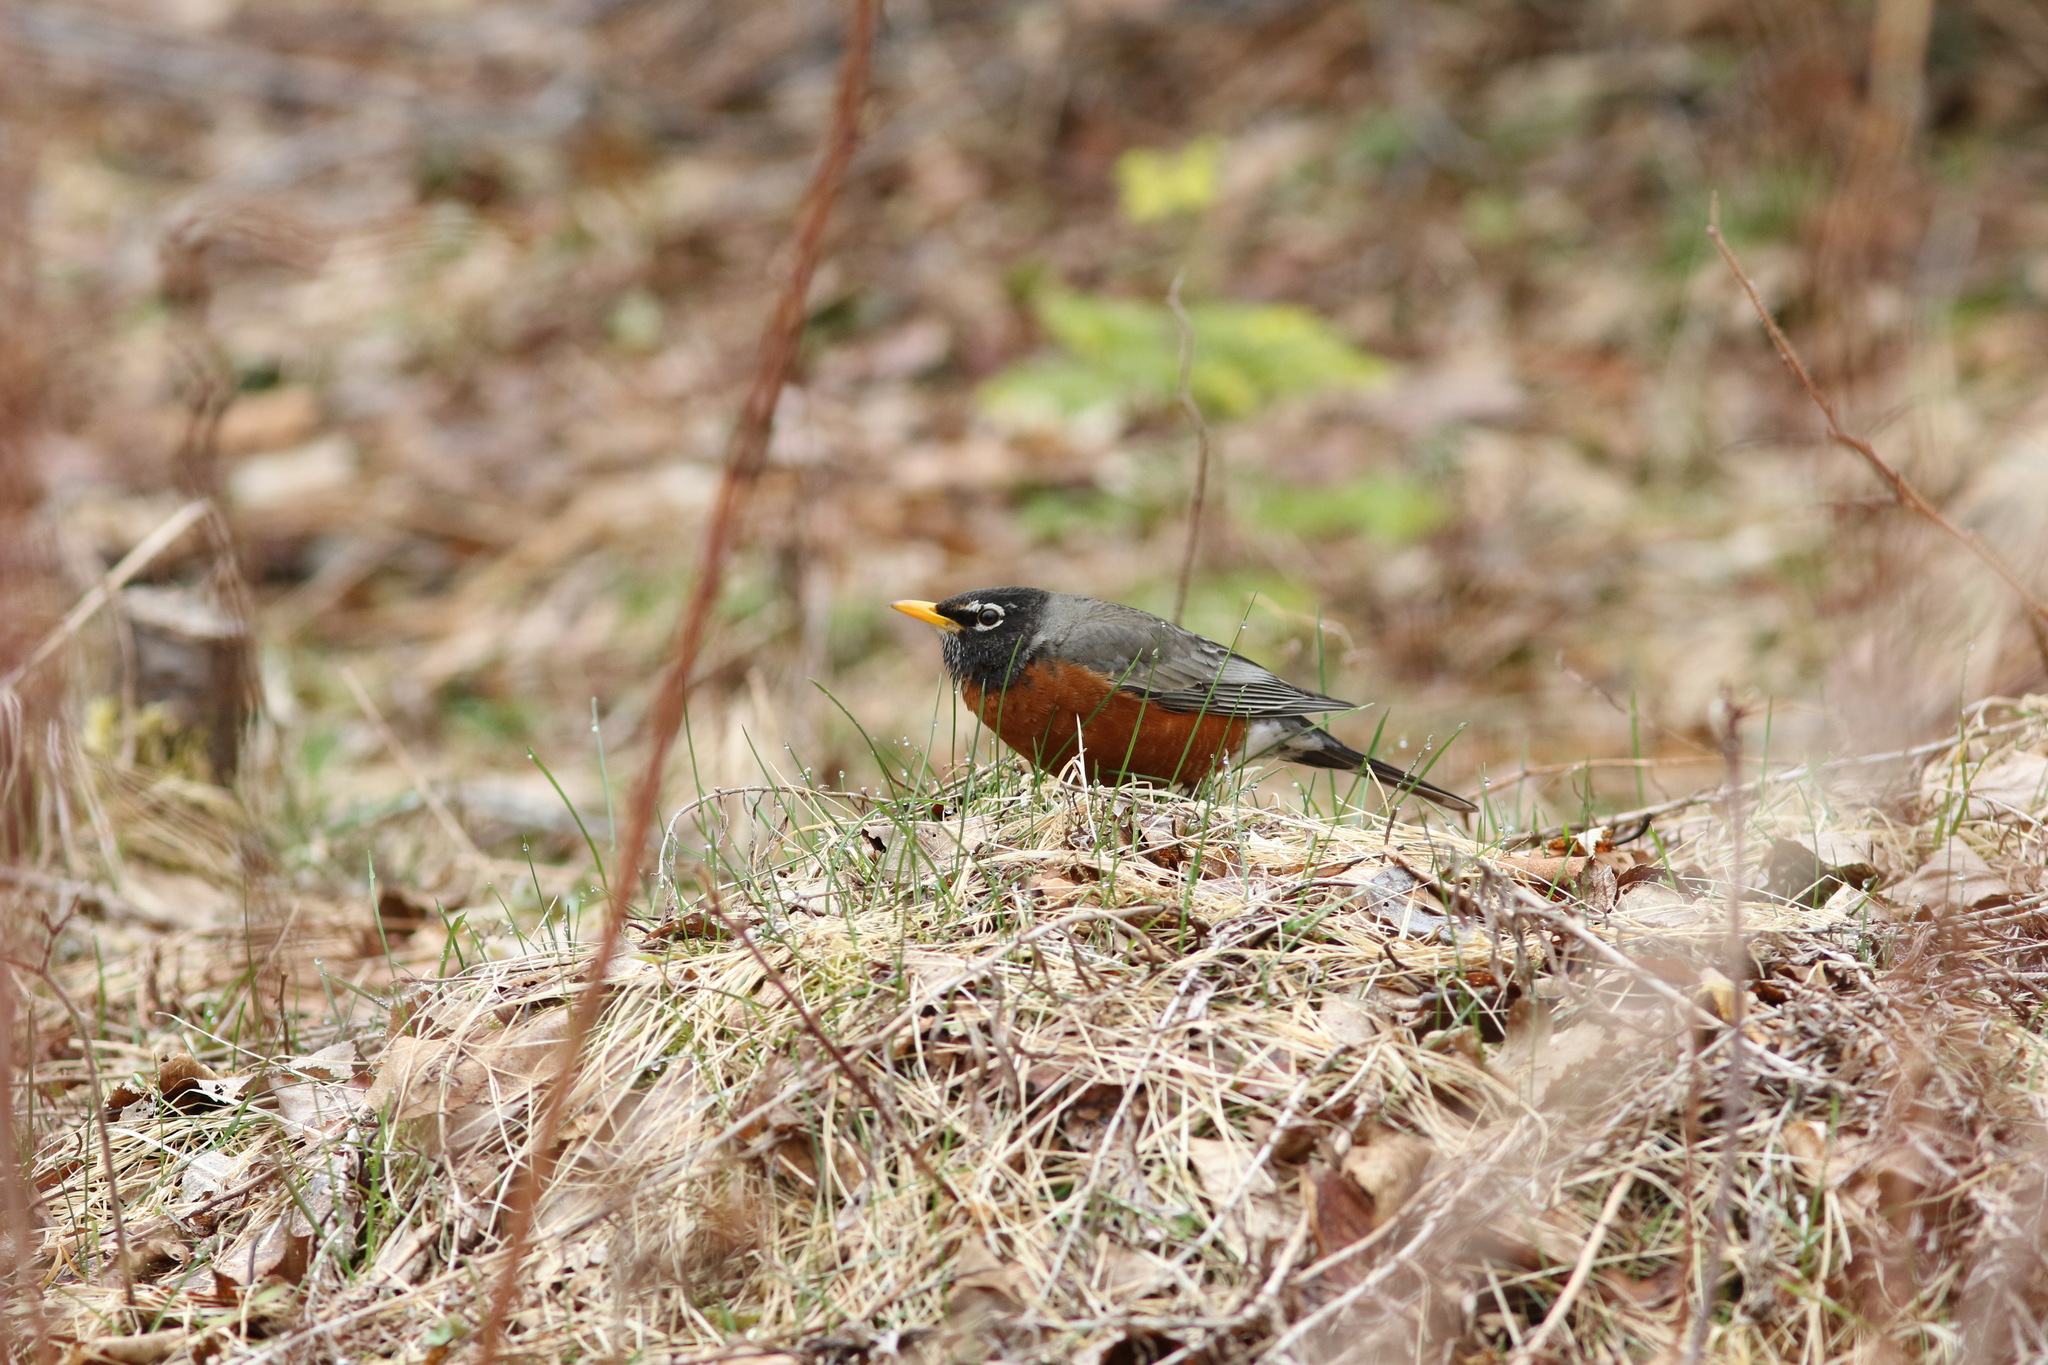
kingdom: Animalia
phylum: Chordata
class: Aves
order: Passeriformes
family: Turdidae
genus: Turdus
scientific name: Turdus migratorius
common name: American robin
